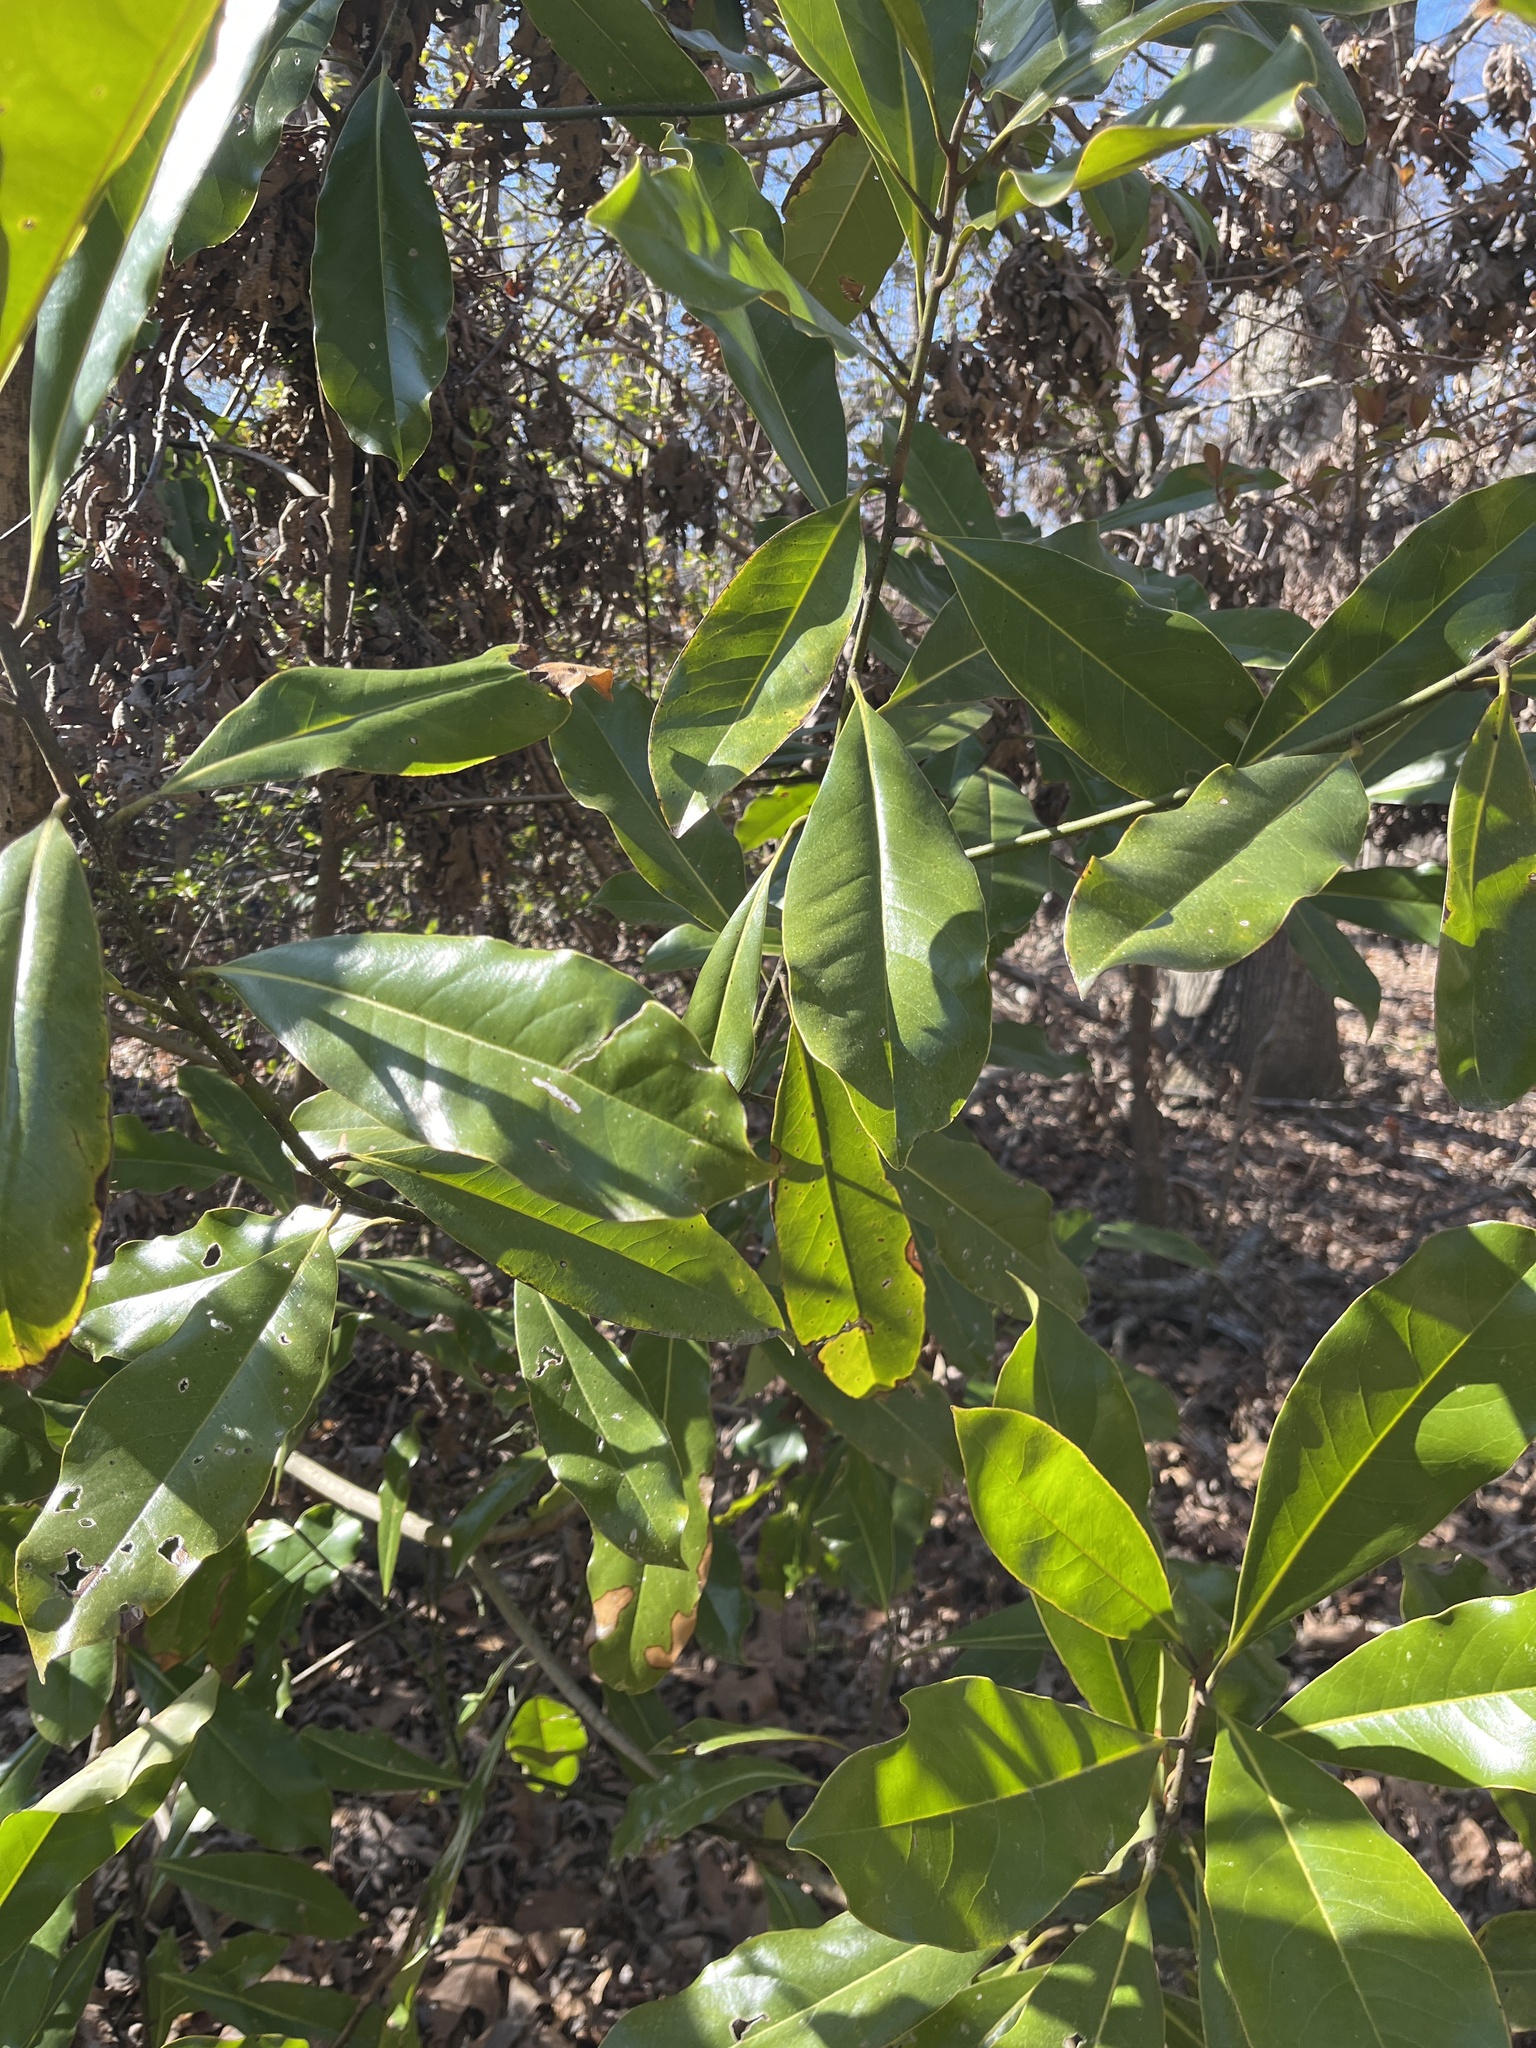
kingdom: Plantae
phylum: Tracheophyta
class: Magnoliopsida
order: Magnoliales
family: Magnoliaceae
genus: Magnolia
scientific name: Magnolia grandiflora
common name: Southern magnolia
